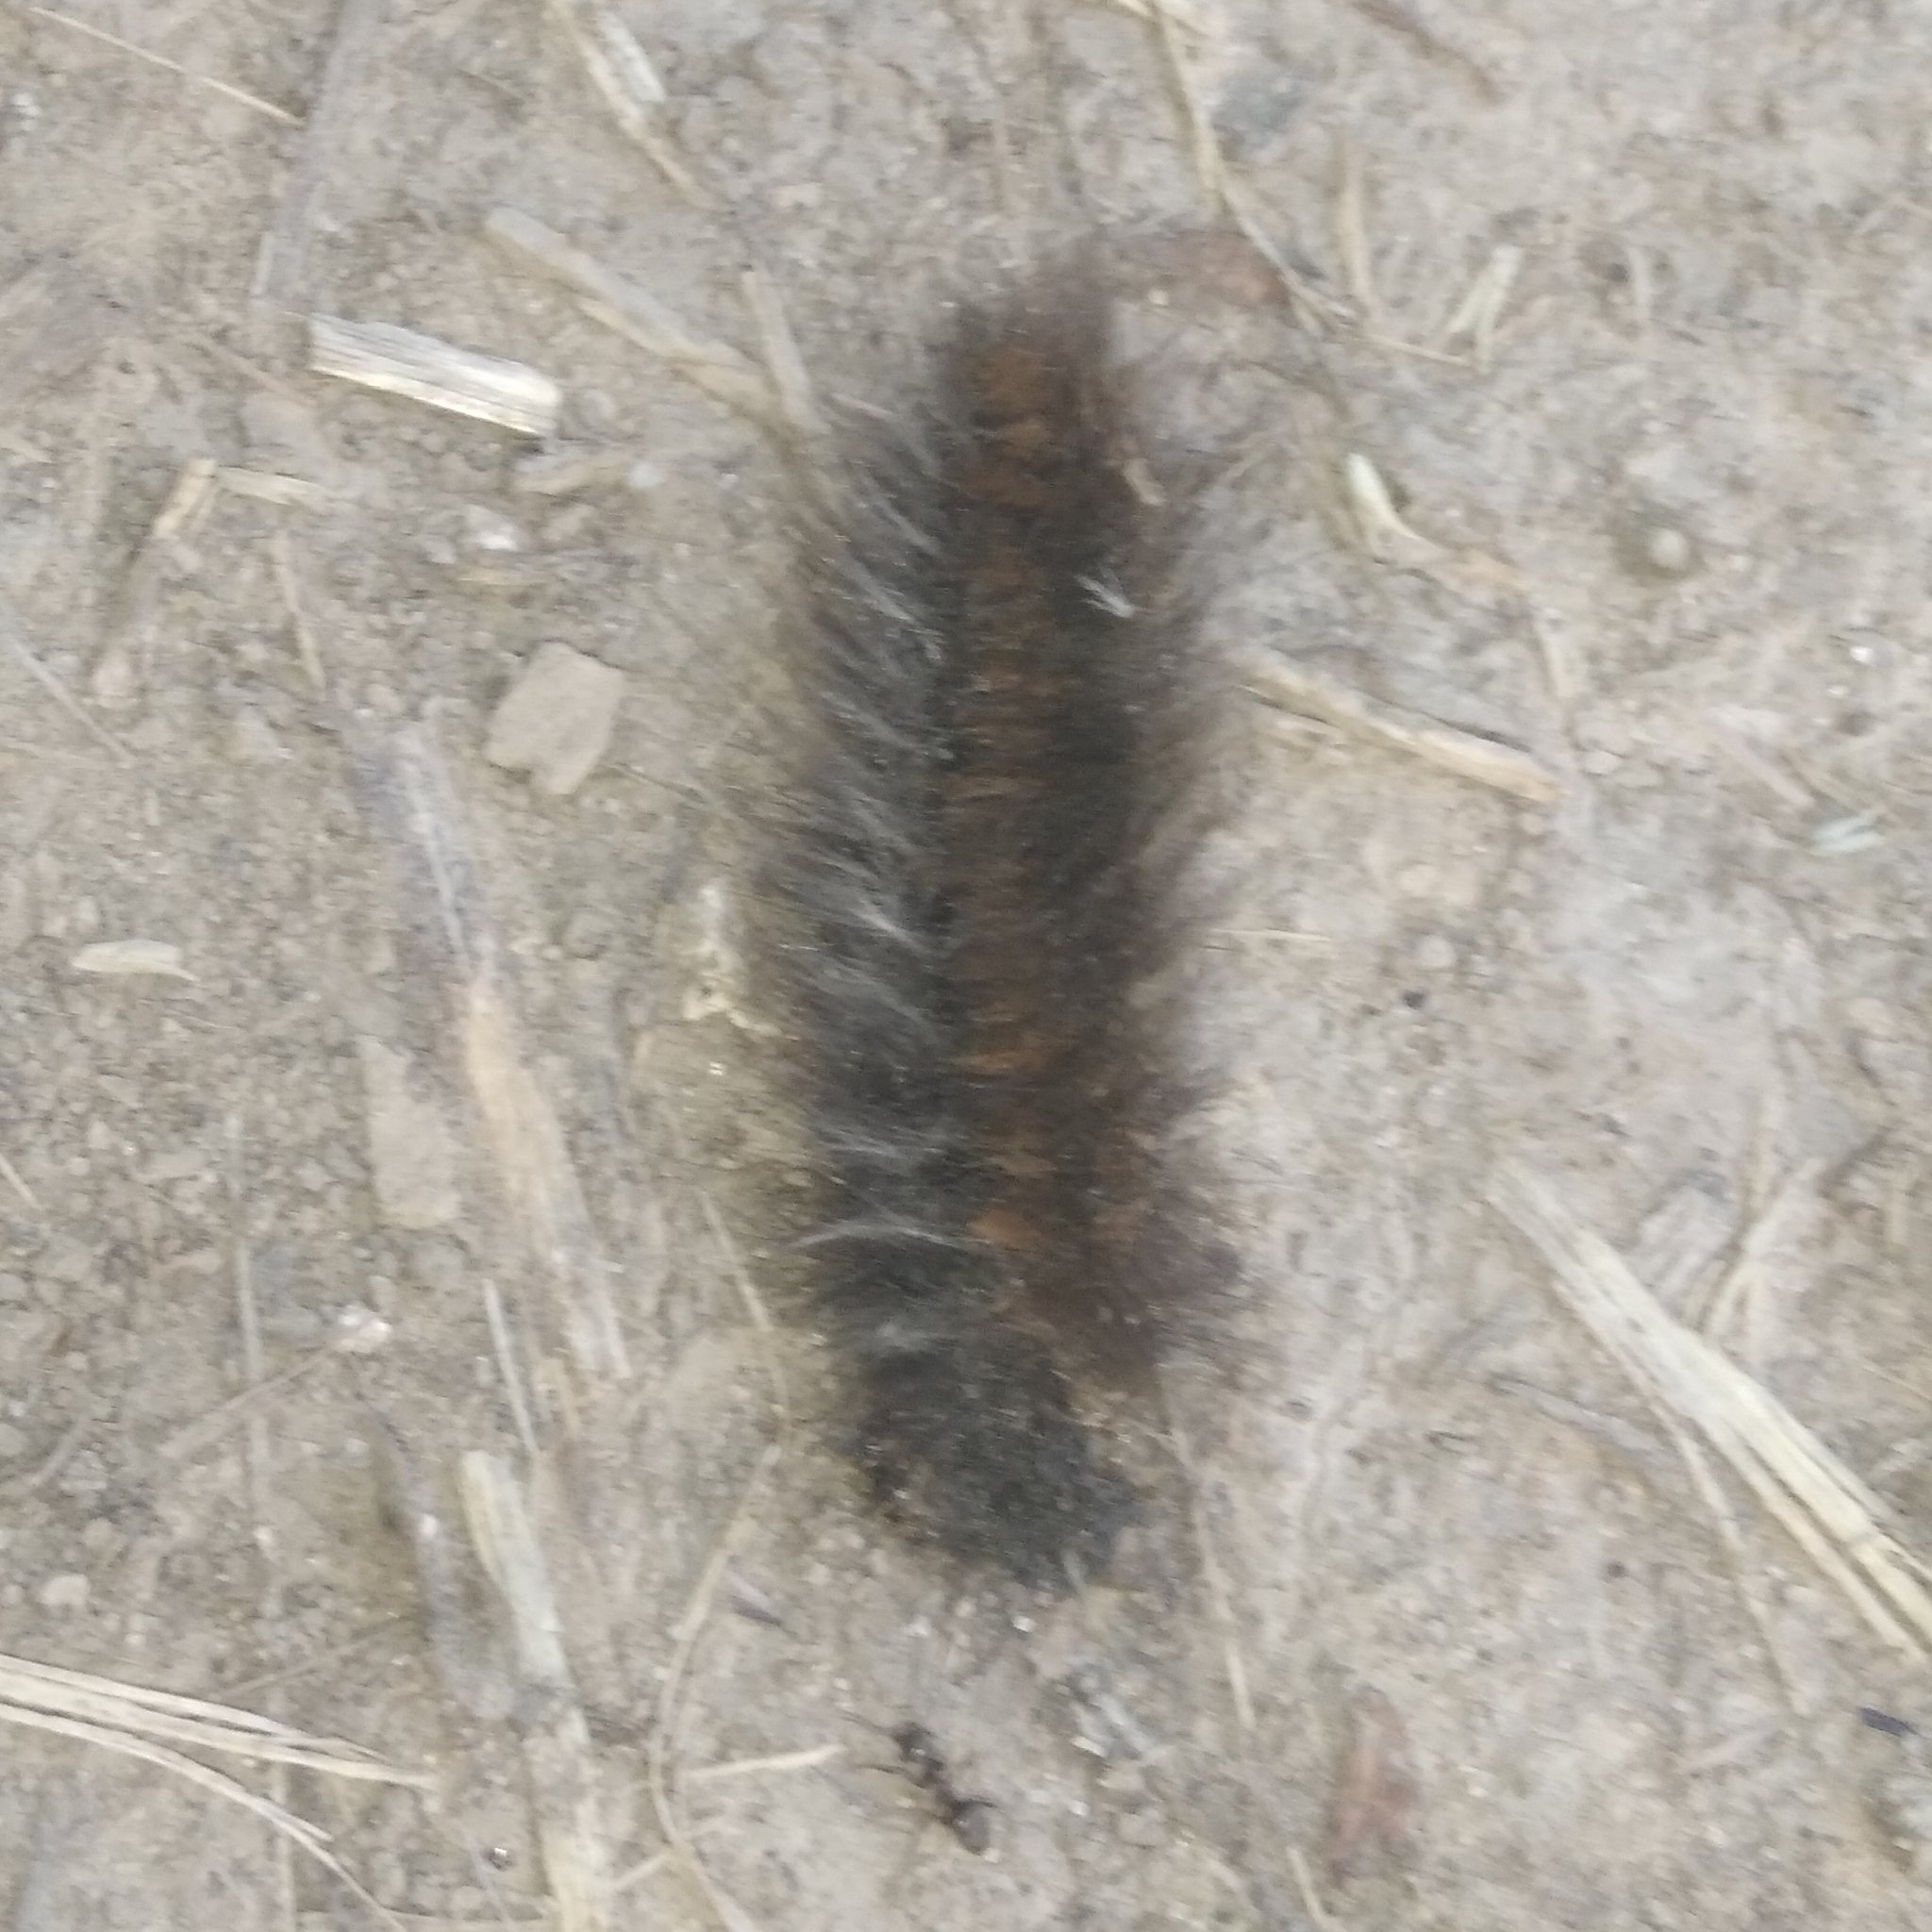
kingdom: Animalia
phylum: Arthropoda
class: Insecta
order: Lepidoptera
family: Lasiocampidae
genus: Macrothylacia
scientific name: Macrothylacia rubi
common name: Fox moth
